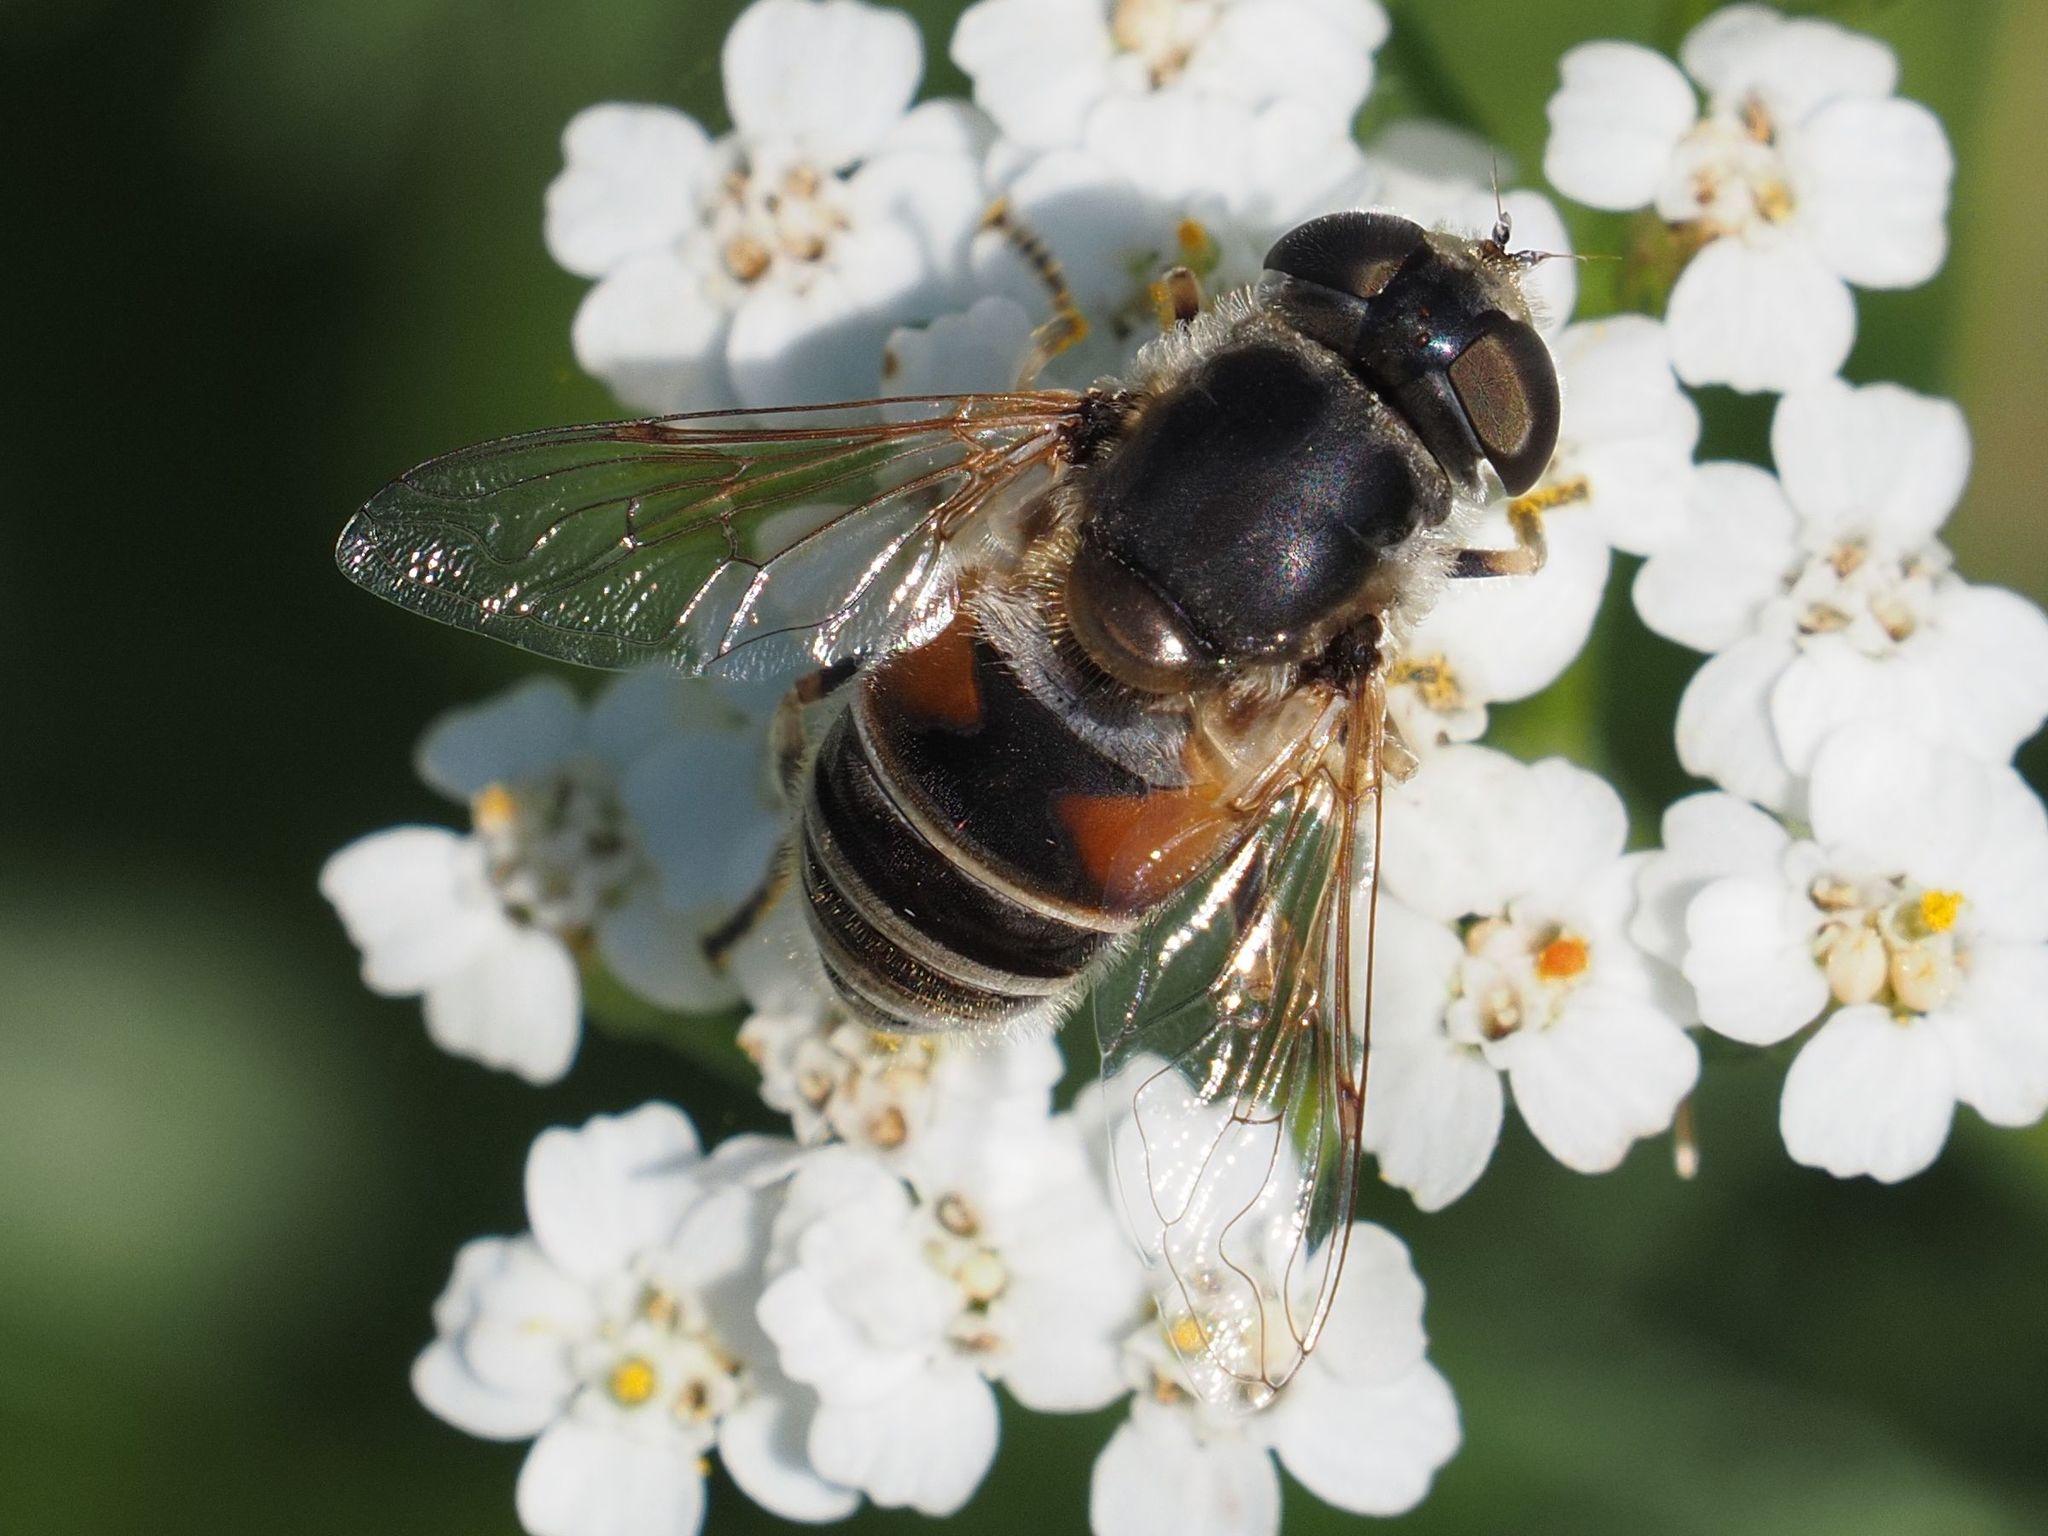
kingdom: Animalia
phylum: Arthropoda
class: Insecta
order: Diptera
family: Syrphidae
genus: Eristalis
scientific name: Eristalis arbustorum
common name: Hover fly
